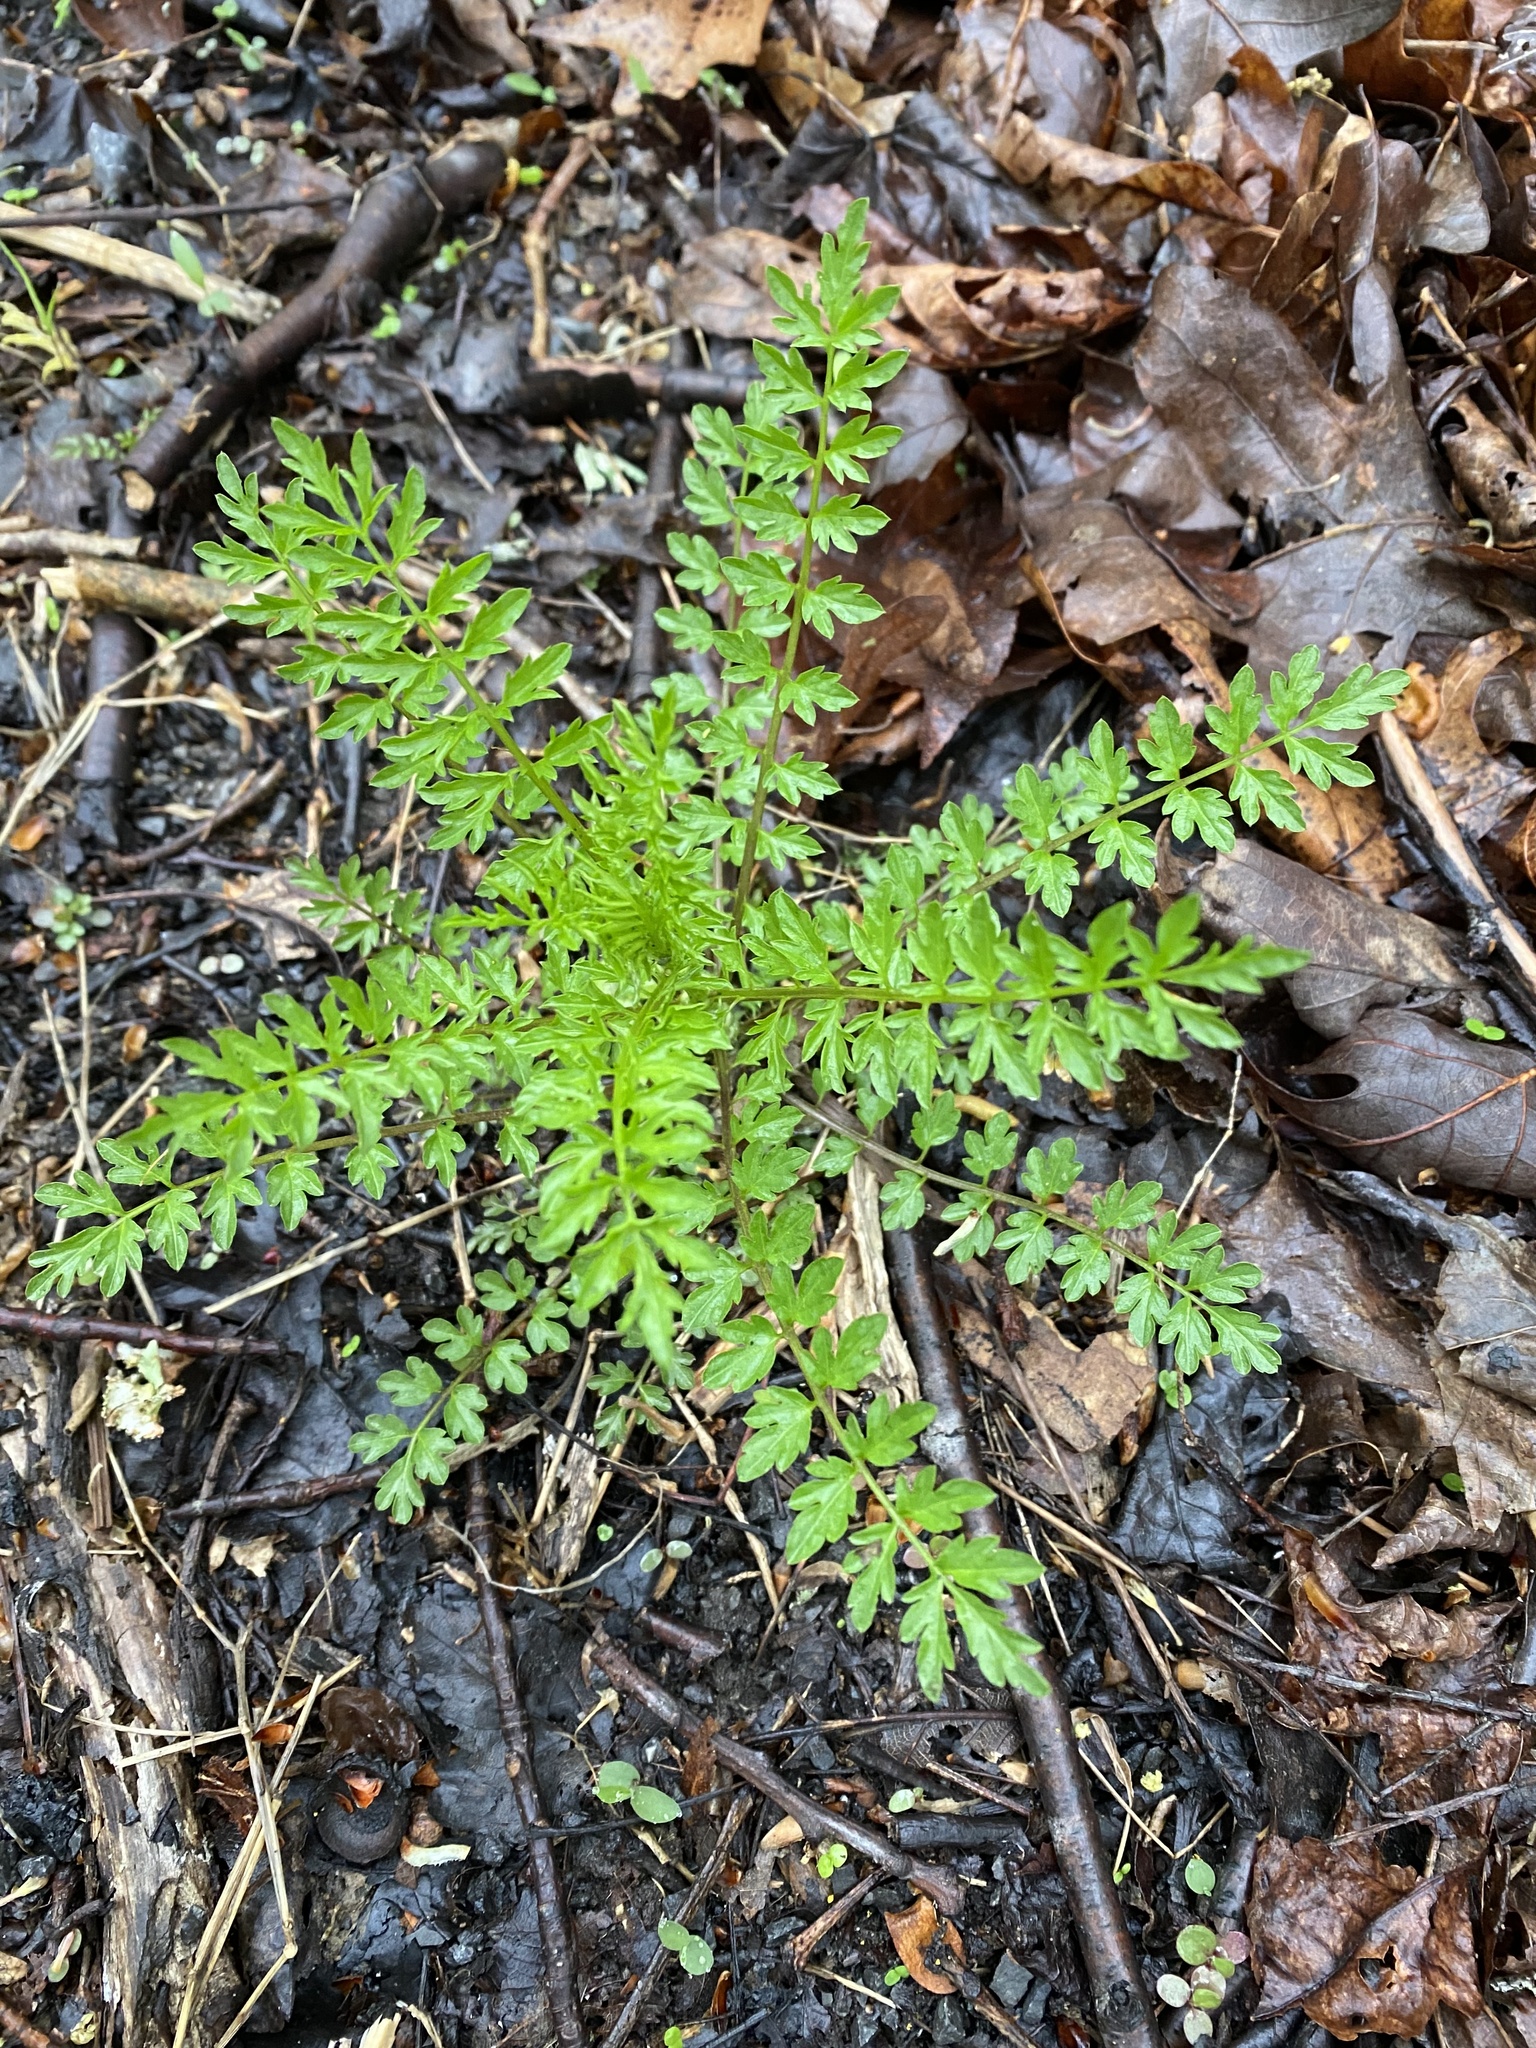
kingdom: Plantae
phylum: Tracheophyta
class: Magnoliopsida
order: Brassicales
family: Brassicaceae
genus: Cardamine
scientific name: Cardamine impatiens
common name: Narrow-leaved bitter-cress
